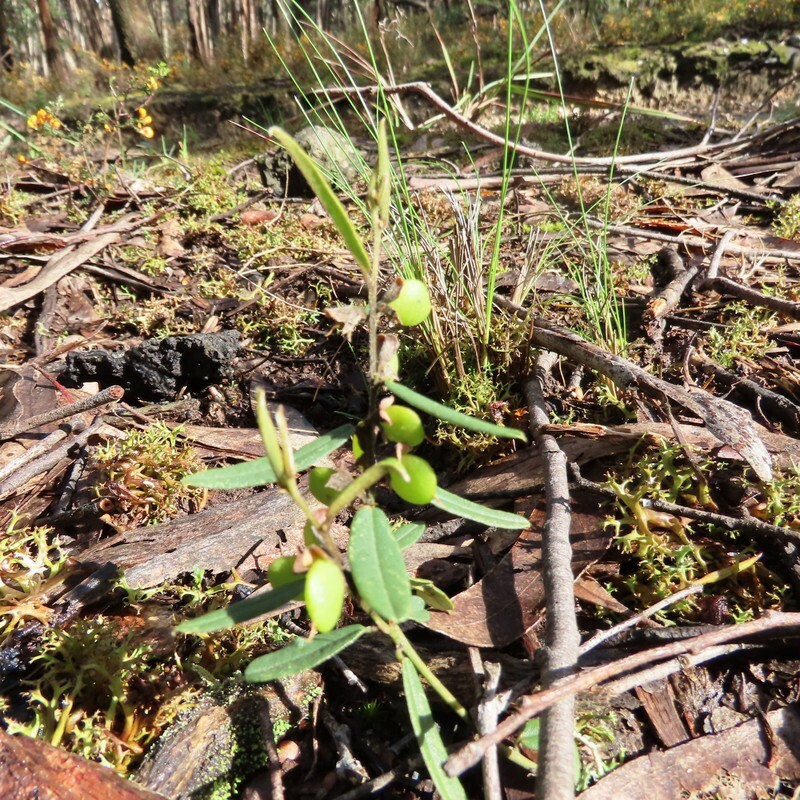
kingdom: Plantae
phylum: Tracheophyta
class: Magnoliopsida
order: Fabales
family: Fabaceae
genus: Hovea
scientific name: Hovea heterophylla
